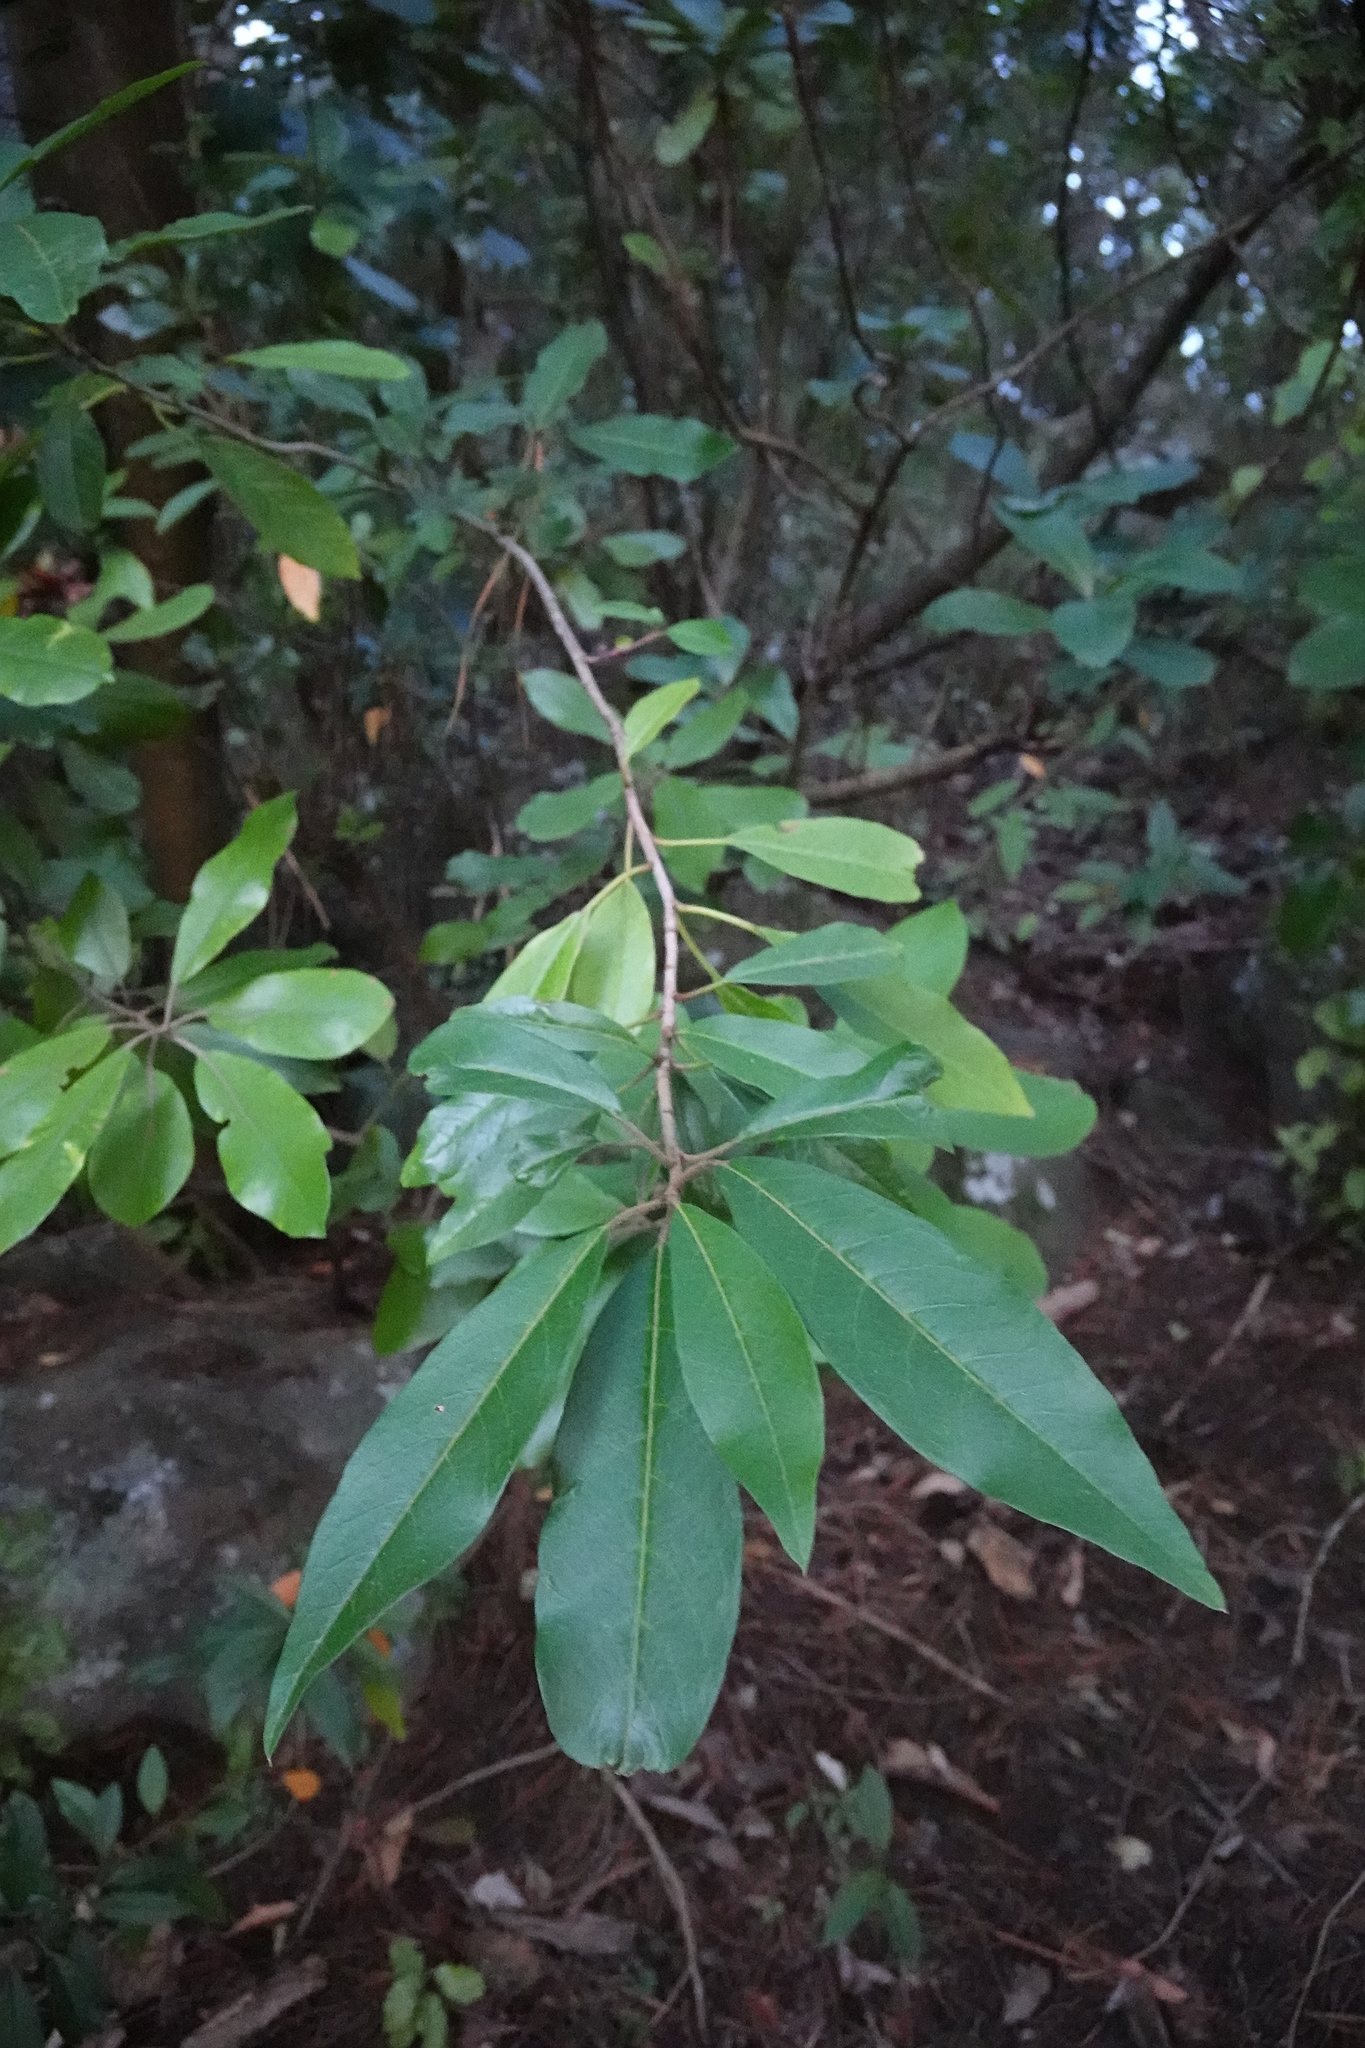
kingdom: Plantae
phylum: Tracheophyta
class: Magnoliopsida
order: Rosales
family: Rosaceae
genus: Stranvaesia
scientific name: Stranvaesia davidiana
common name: Chinese photinia
